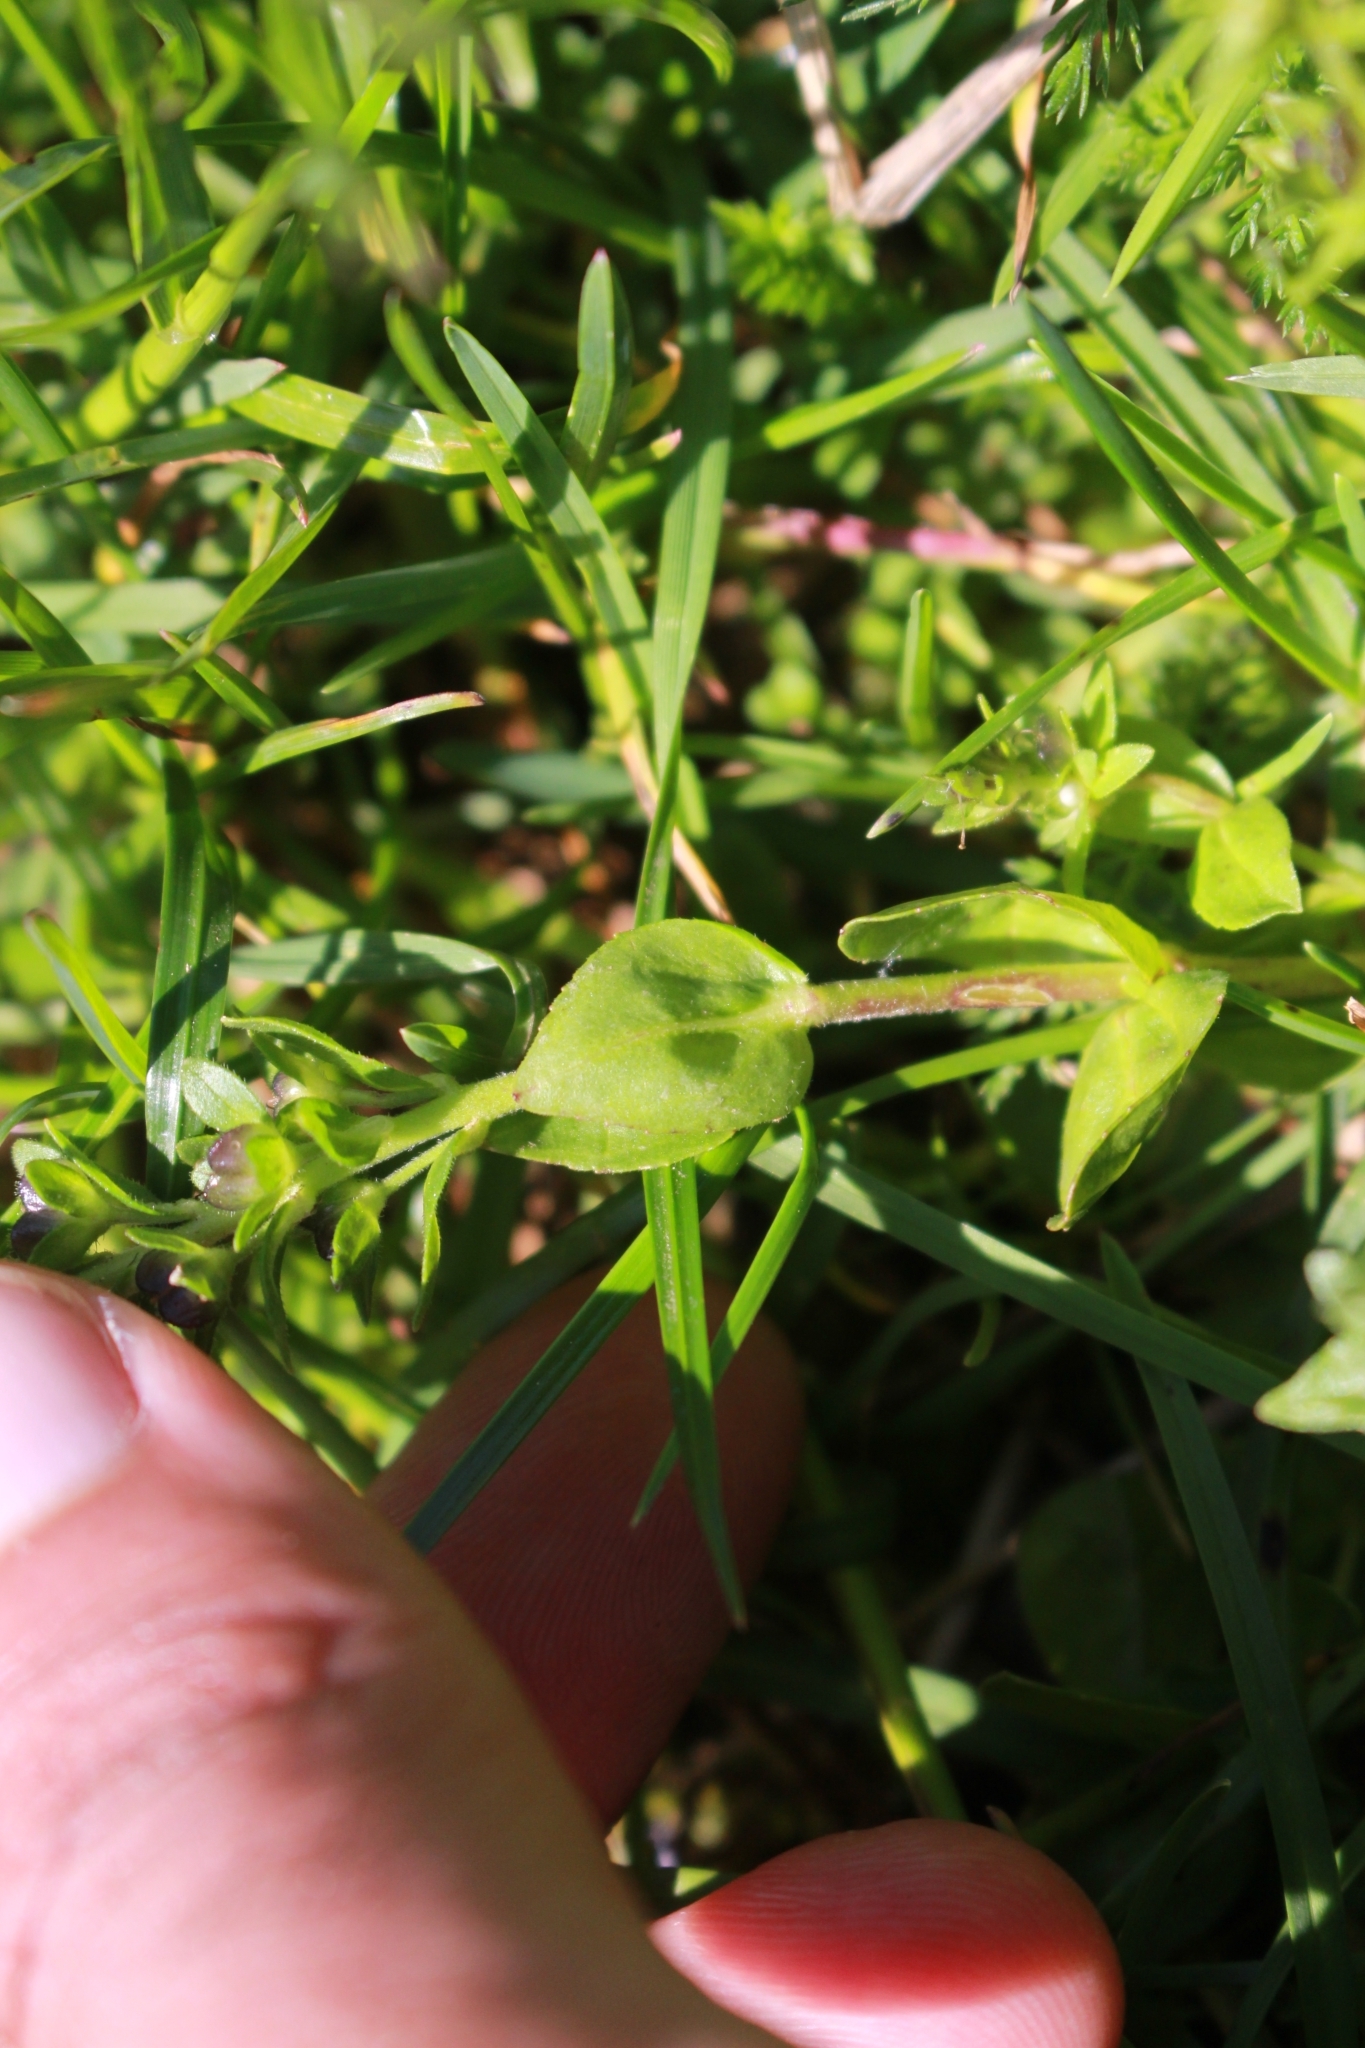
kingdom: Plantae
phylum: Tracheophyta
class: Magnoliopsida
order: Lamiales
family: Plantaginaceae
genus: Veronica
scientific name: Veronica serpyllifolia
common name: Thyme-leaved speedwell
